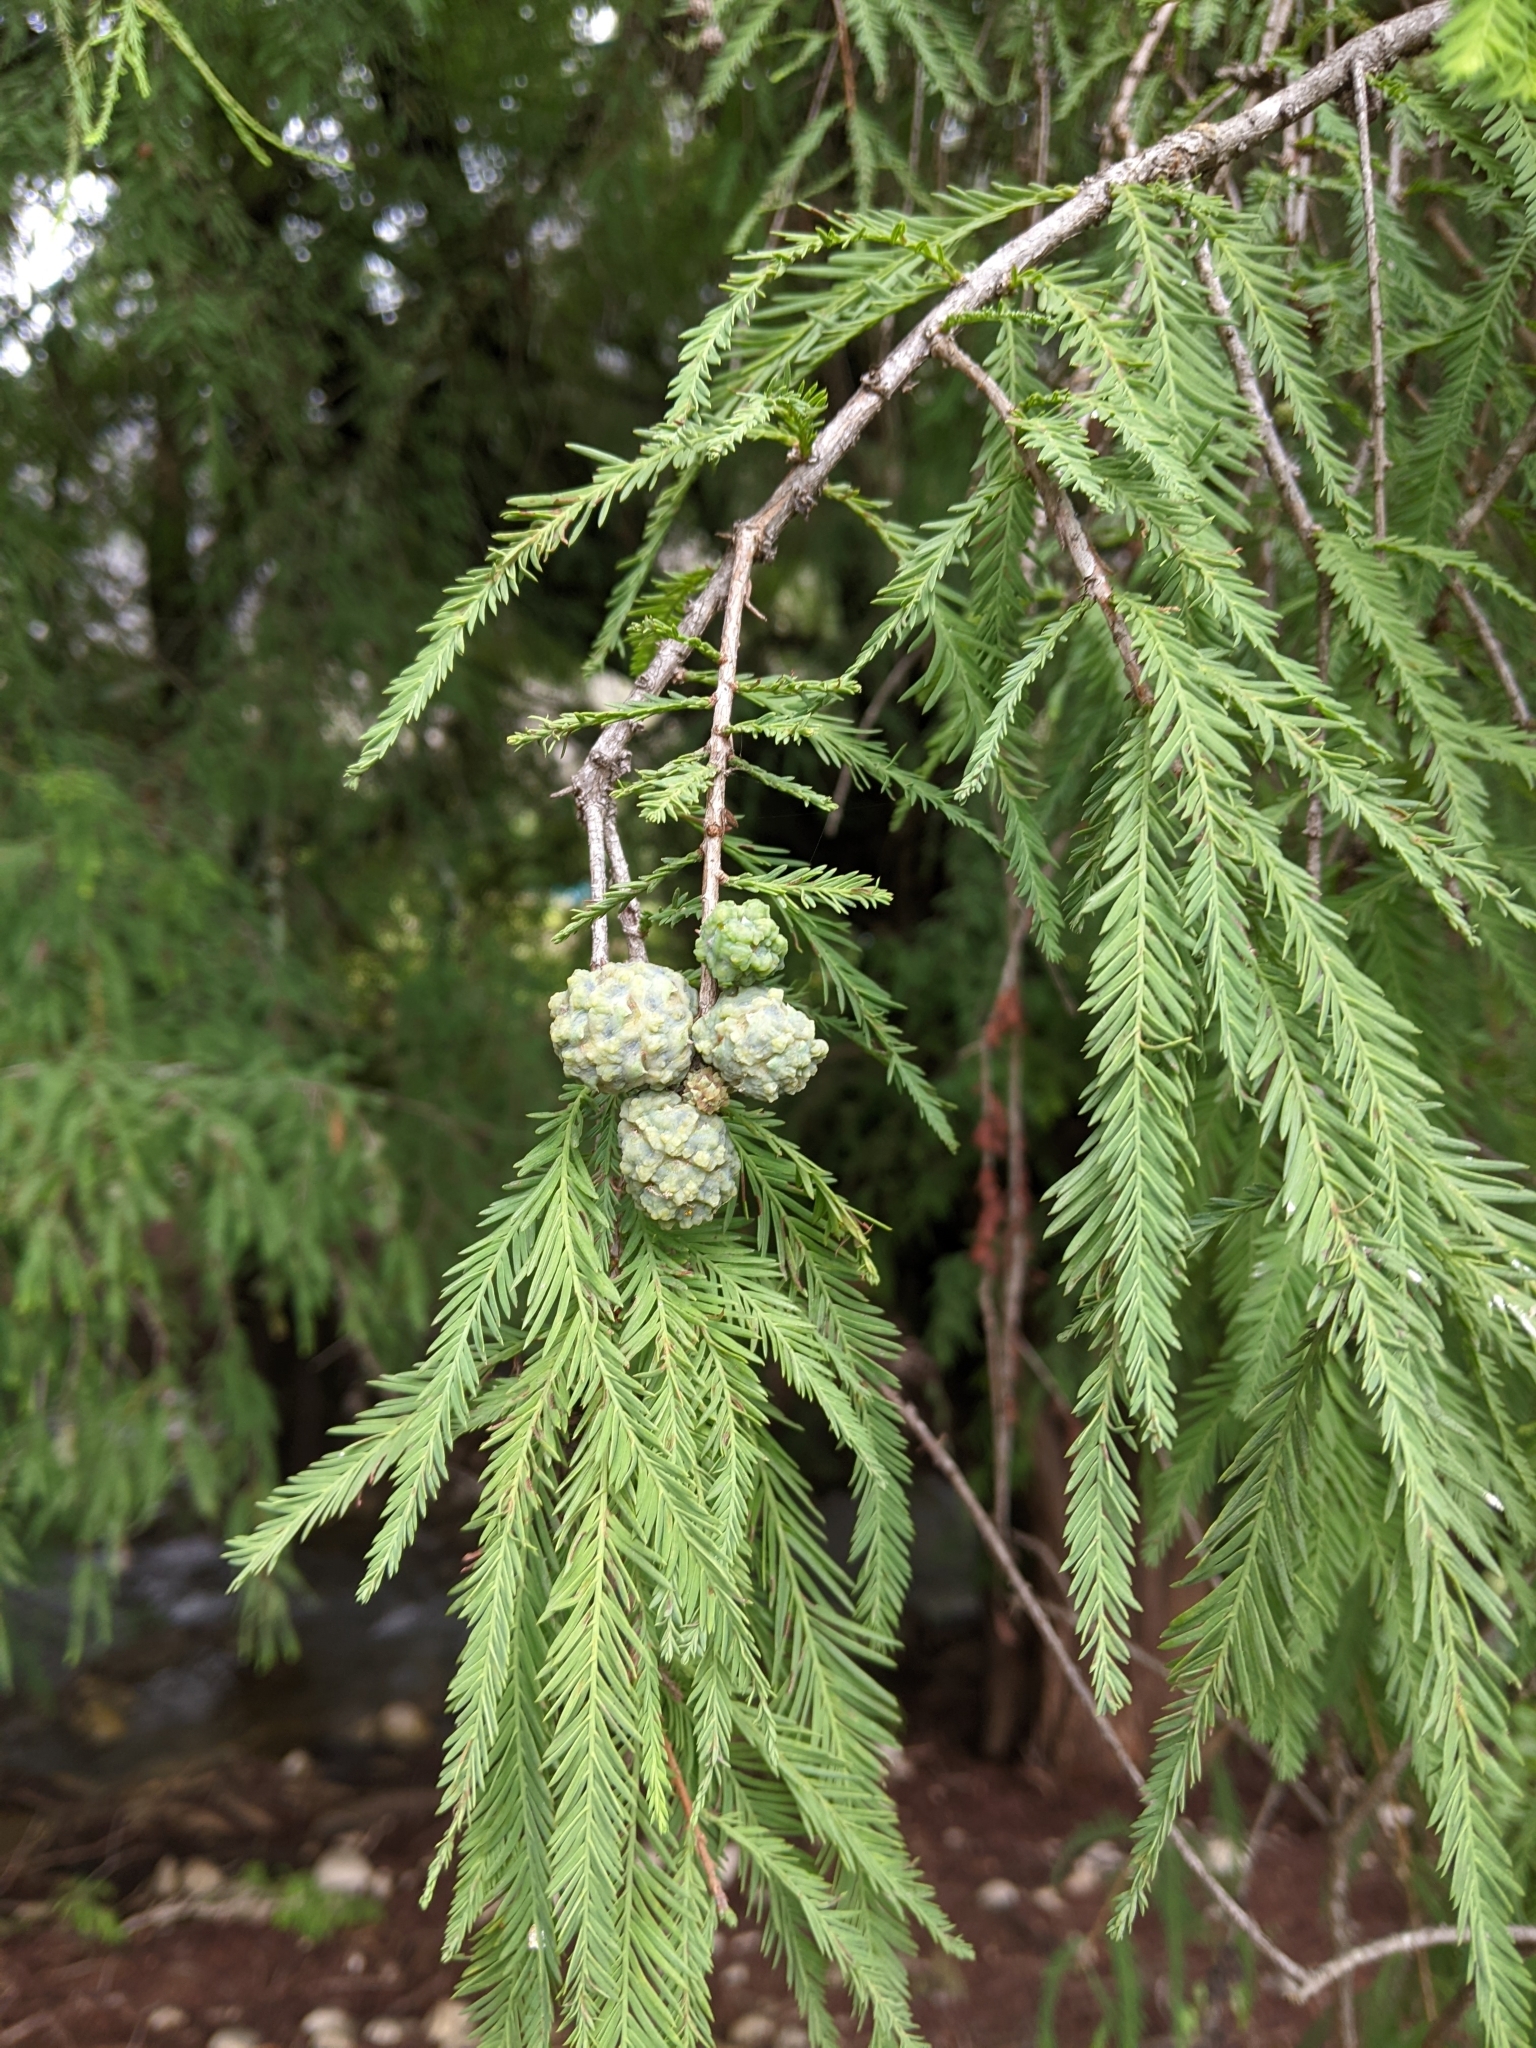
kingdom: Plantae
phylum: Tracheophyta
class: Pinopsida
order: Pinales
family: Cupressaceae
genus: Taxodium
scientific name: Taxodium mucronatum
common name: Montezume bald cypress
